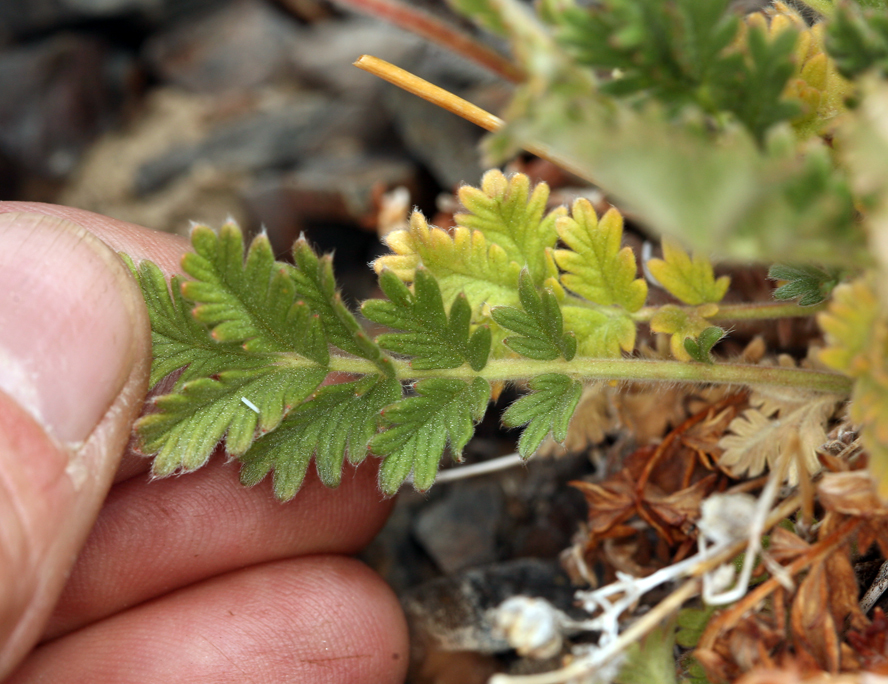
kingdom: Plantae
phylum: Tracheophyta
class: Magnoliopsida
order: Rosales
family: Rosaceae
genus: Potentilla
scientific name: Potentilla pensylvanica
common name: Pennsylvania cinquefoil
